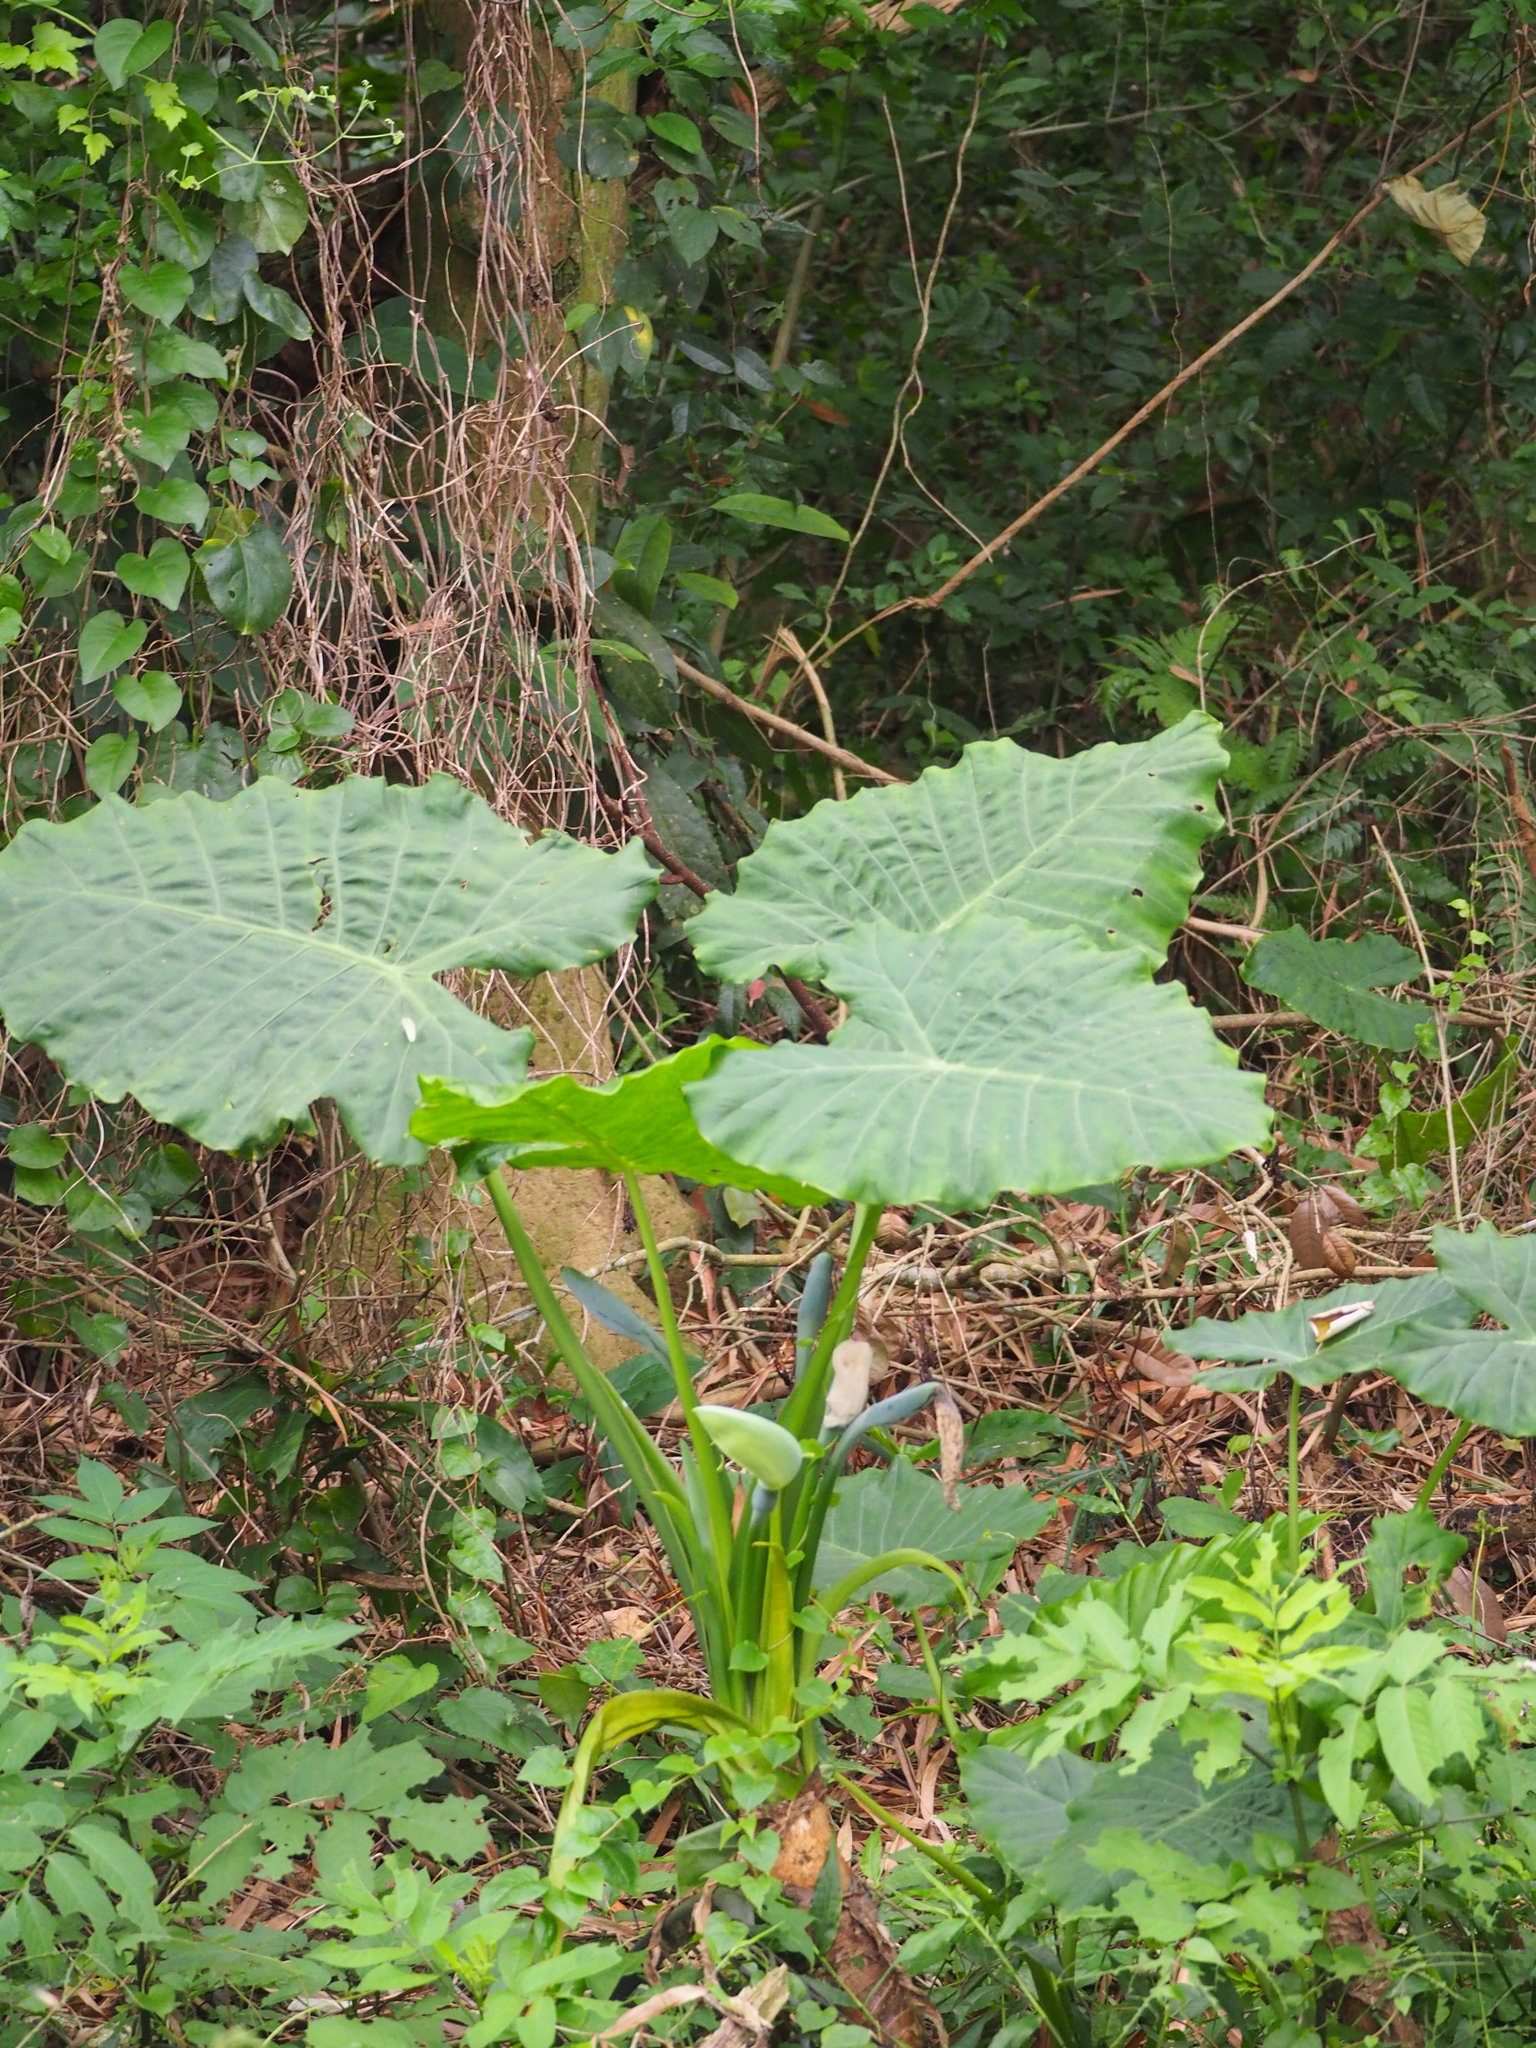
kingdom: Plantae
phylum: Tracheophyta
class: Liliopsida
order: Alismatales
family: Araceae
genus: Alocasia
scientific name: Alocasia odora
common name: Asian taro
